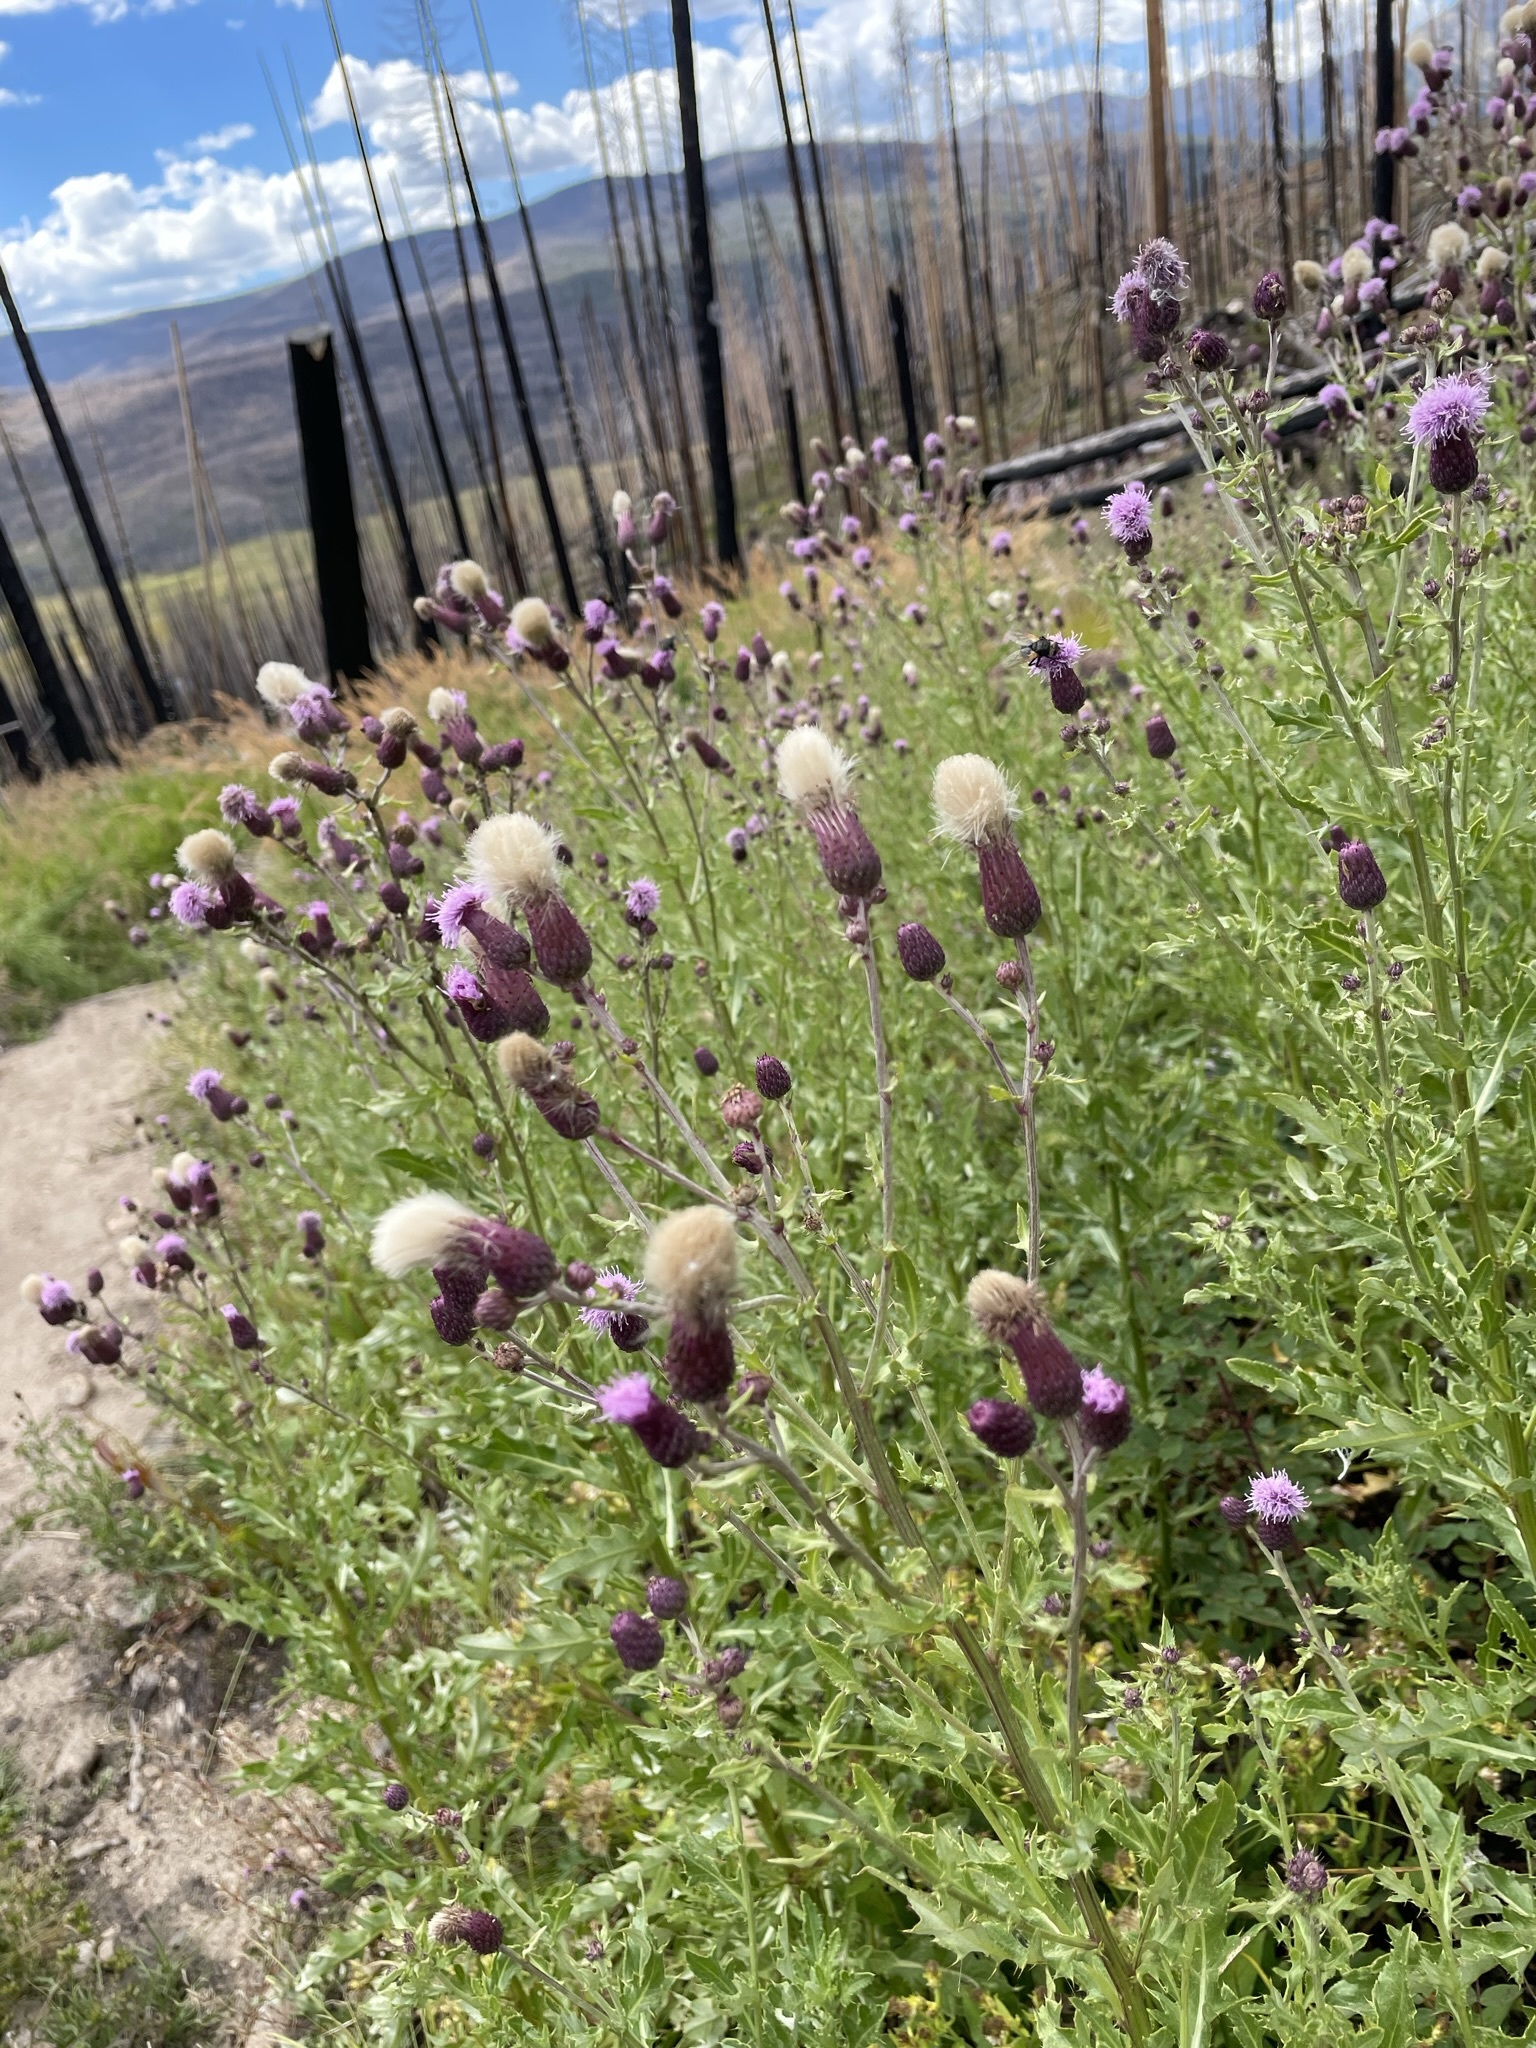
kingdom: Plantae
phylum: Tracheophyta
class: Magnoliopsida
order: Asterales
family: Asteraceae
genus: Cirsium
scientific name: Cirsium arvense
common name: Creeping thistle
